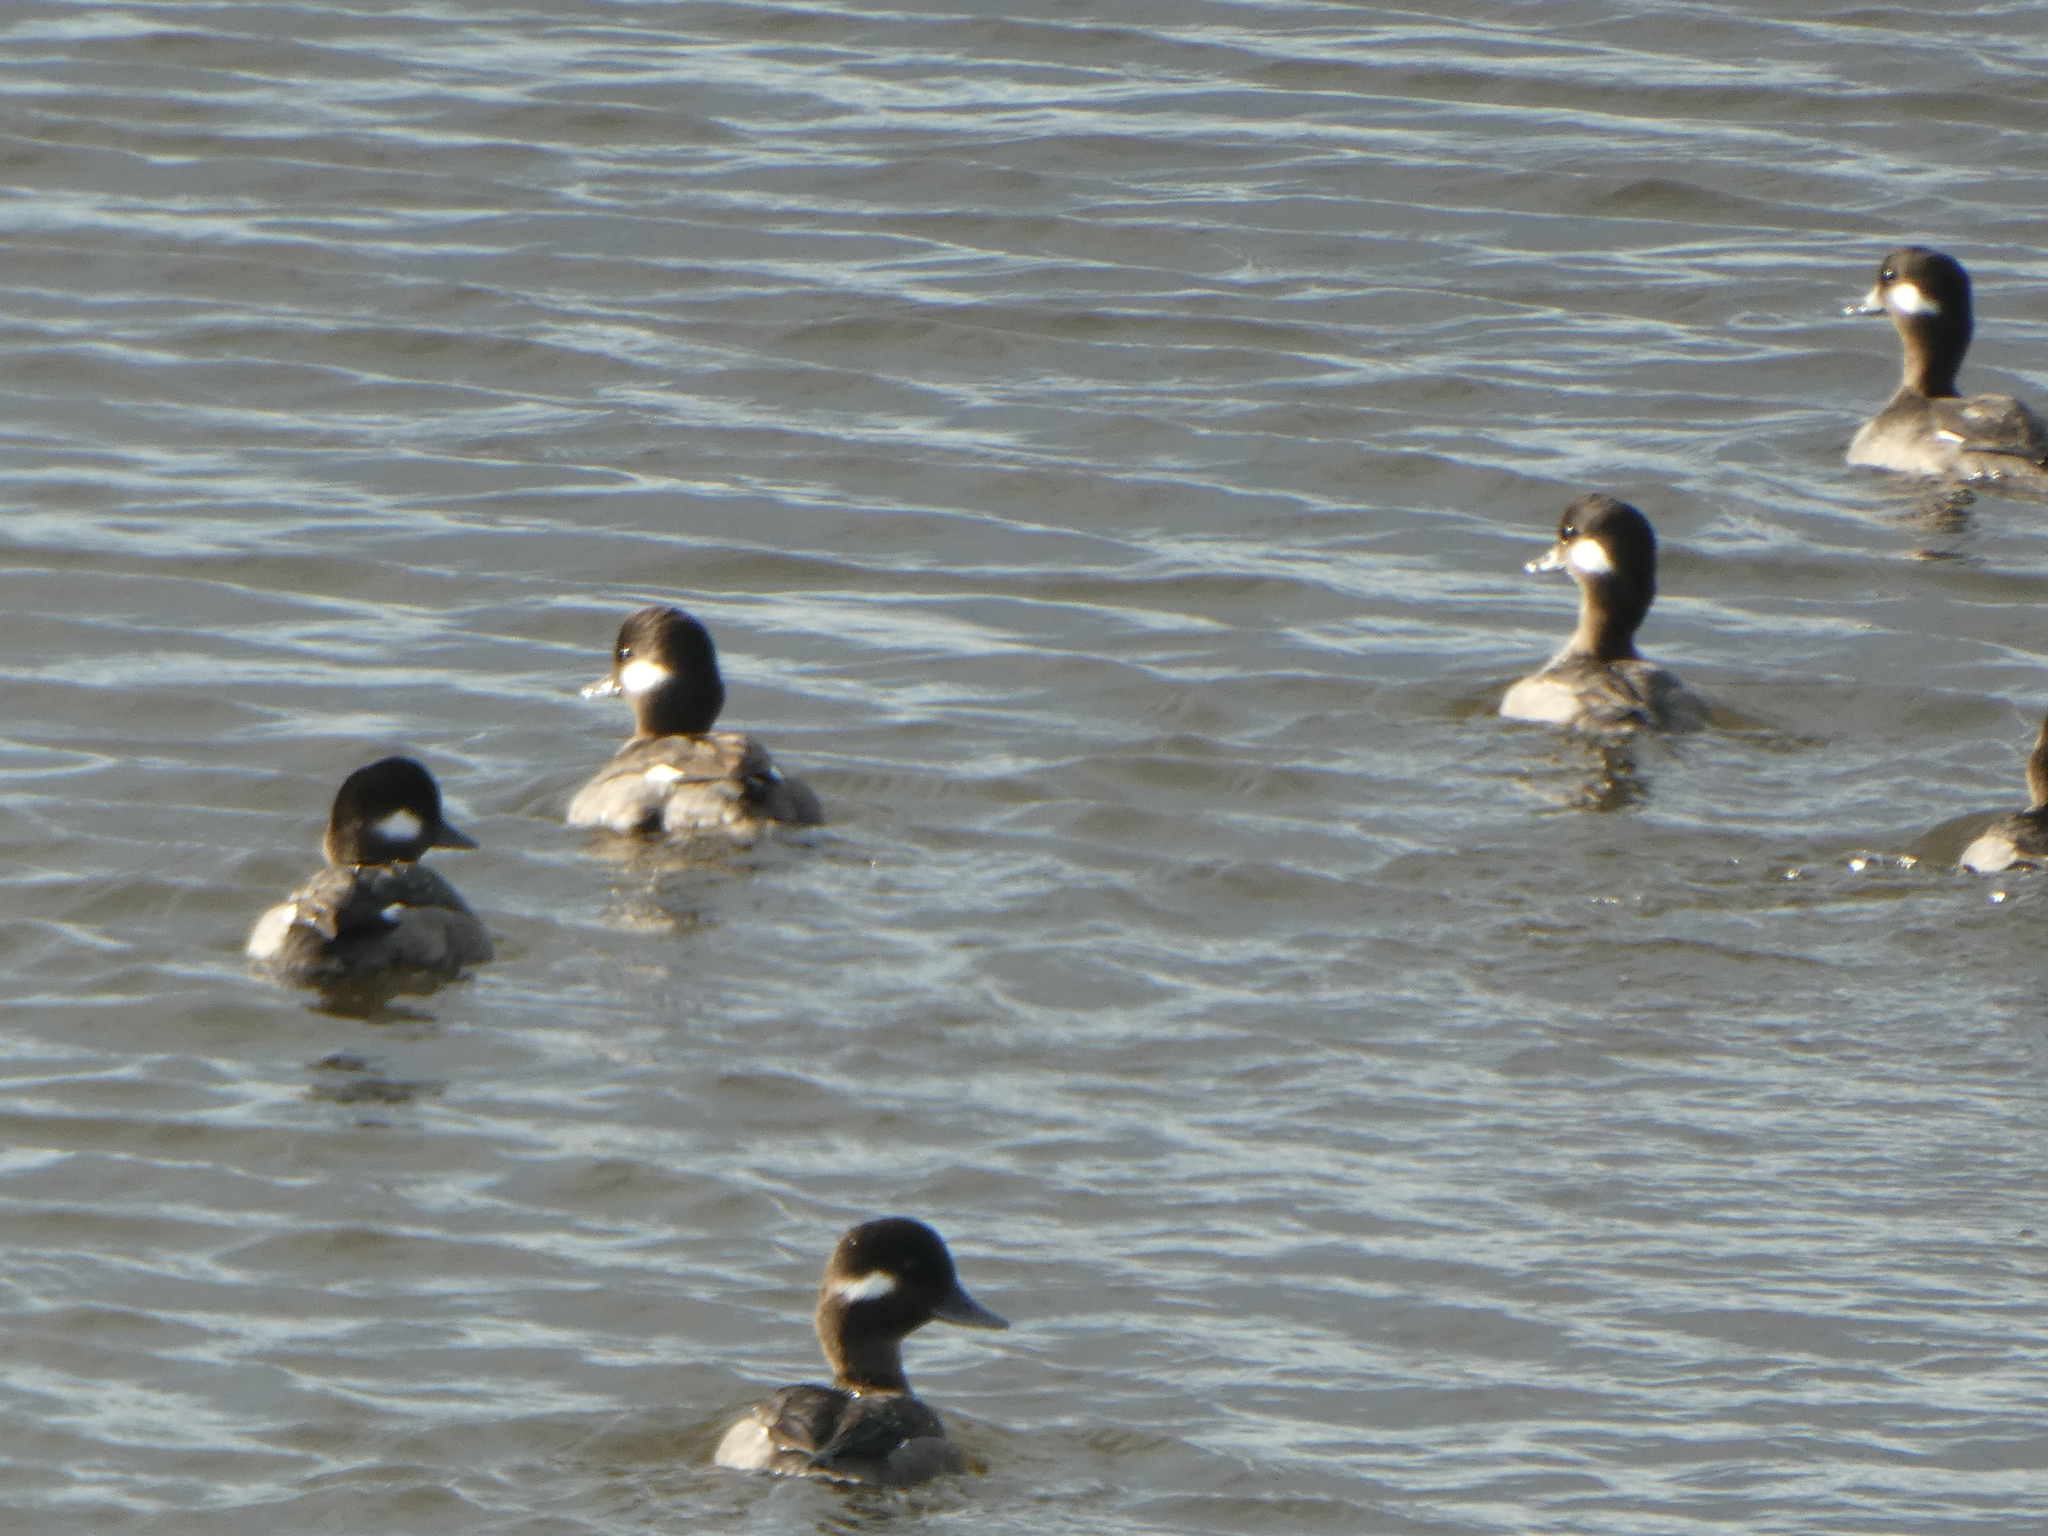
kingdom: Animalia
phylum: Chordata
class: Aves
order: Anseriformes
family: Anatidae
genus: Bucephala
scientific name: Bucephala albeola
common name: Bufflehead
